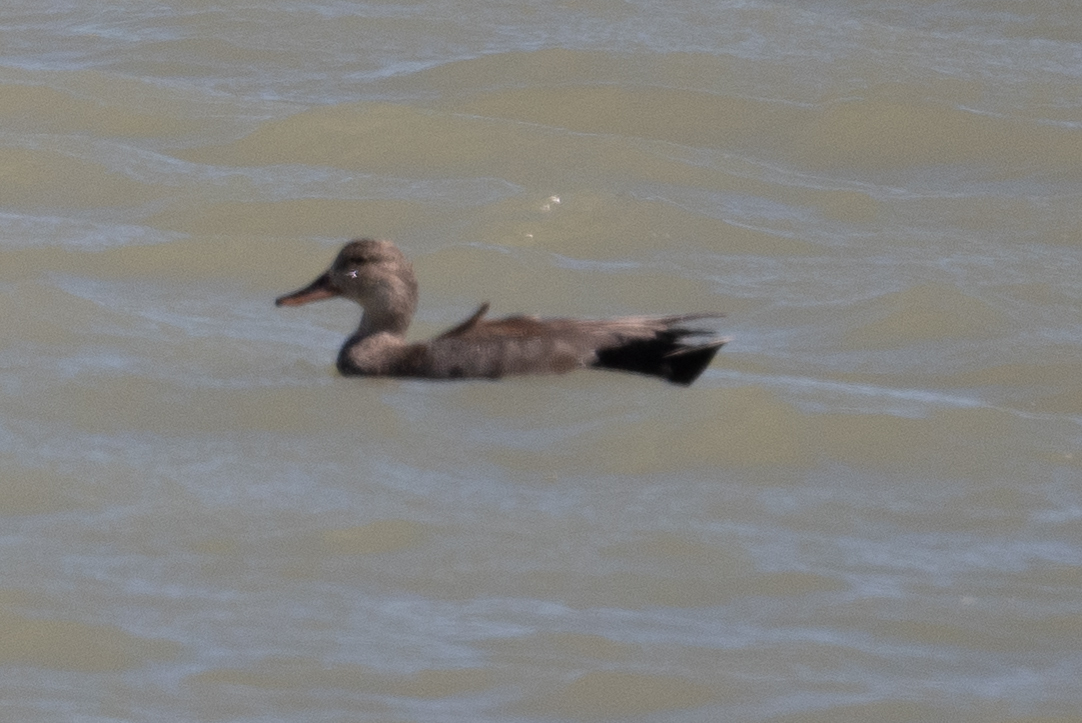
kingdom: Animalia
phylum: Chordata
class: Aves
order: Anseriformes
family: Anatidae
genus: Mareca
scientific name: Mareca strepera
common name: Gadwall
